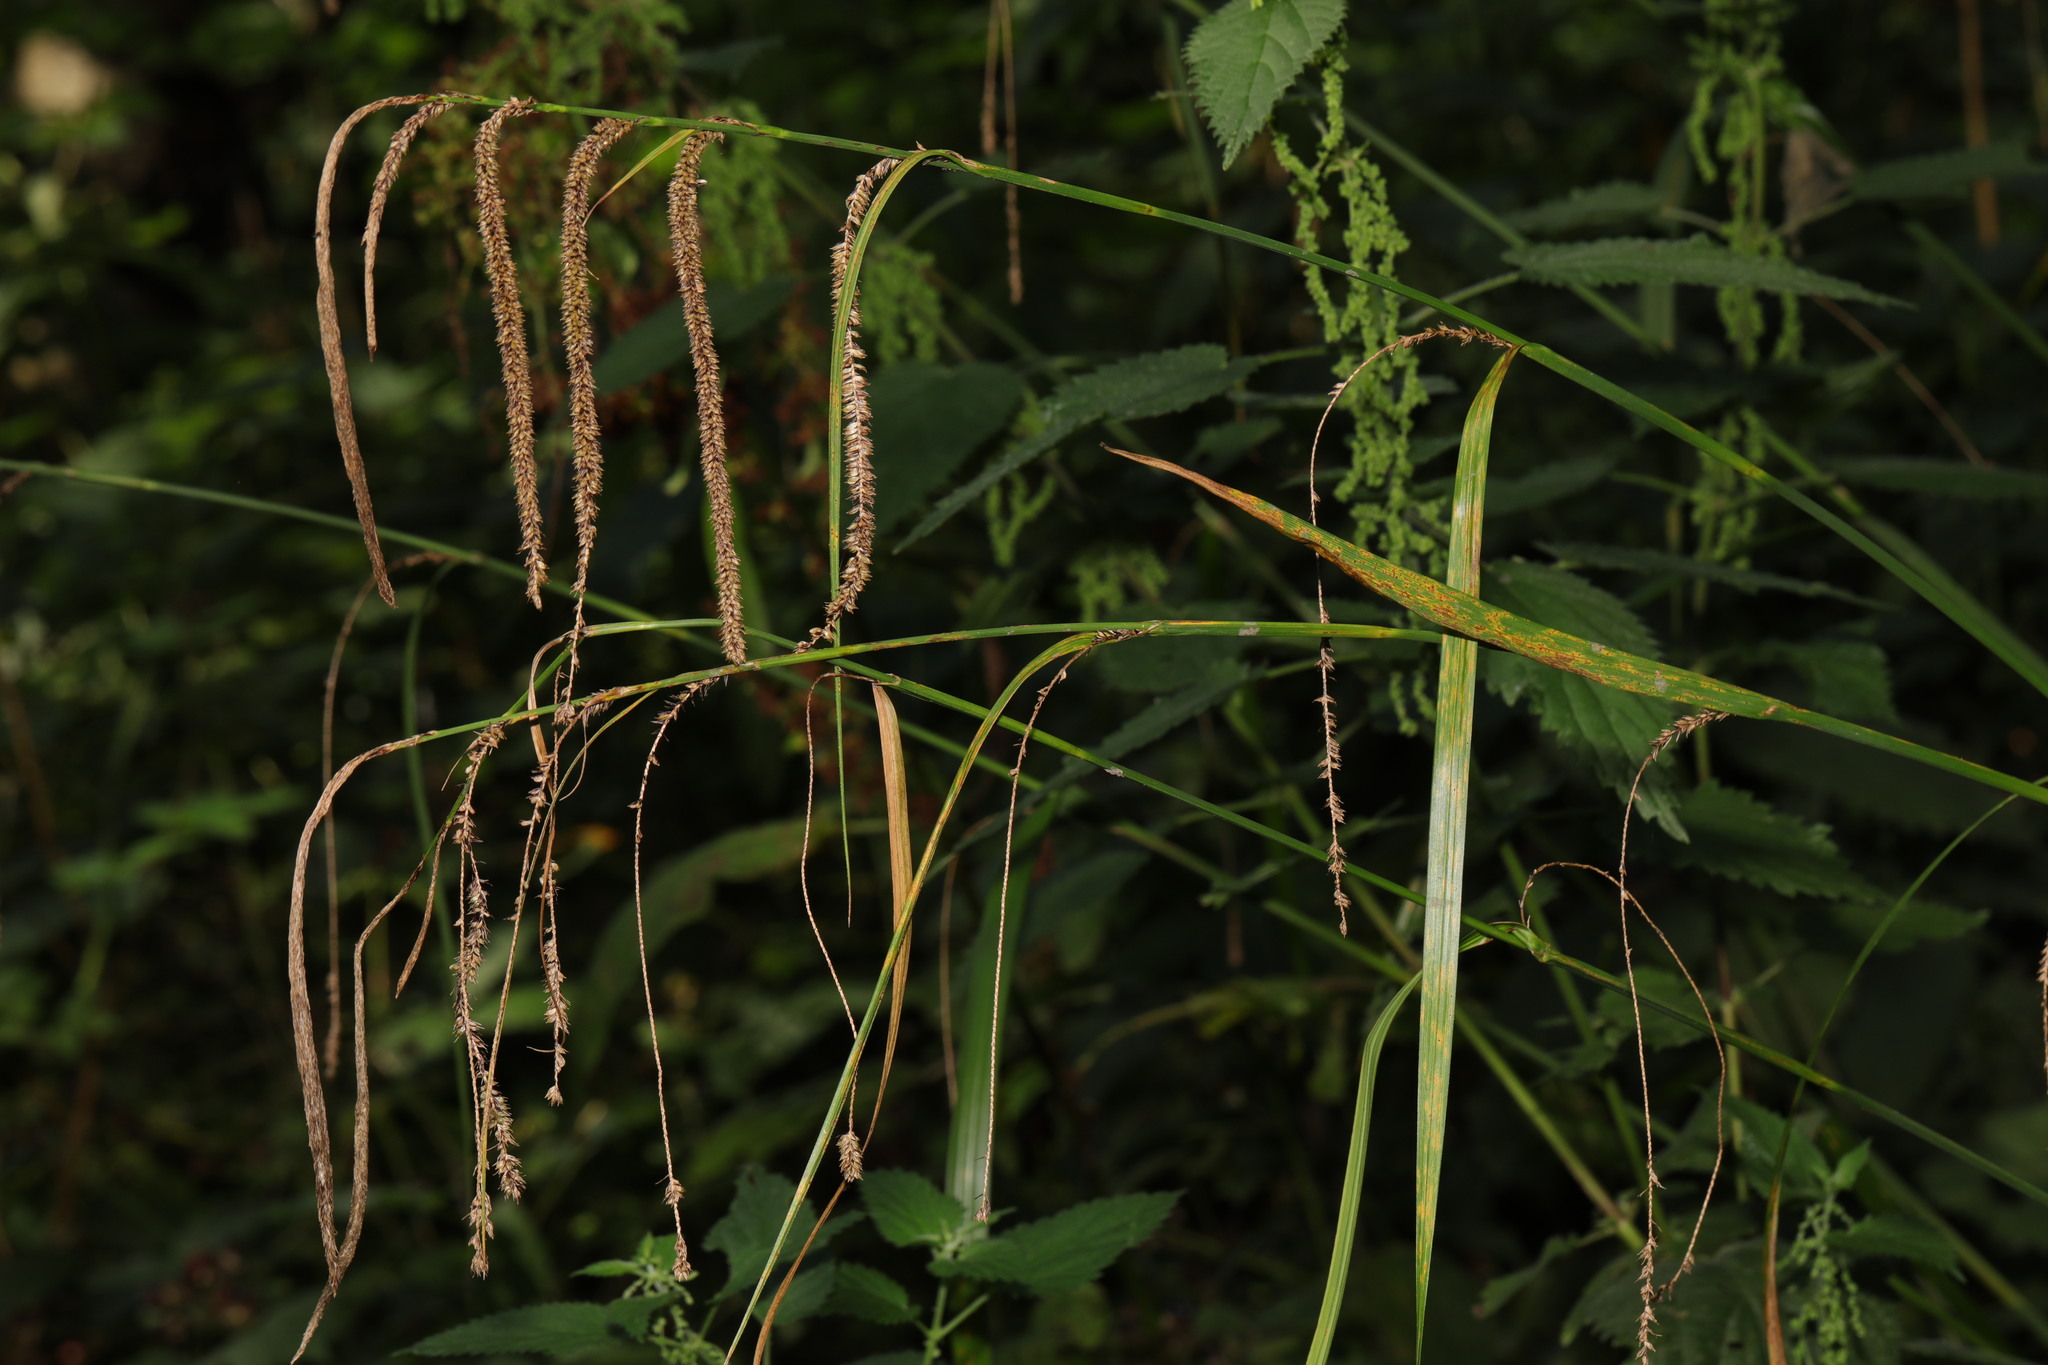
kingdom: Plantae
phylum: Tracheophyta
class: Liliopsida
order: Poales
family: Cyperaceae
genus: Carex
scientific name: Carex pendula
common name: Pendulous sedge
